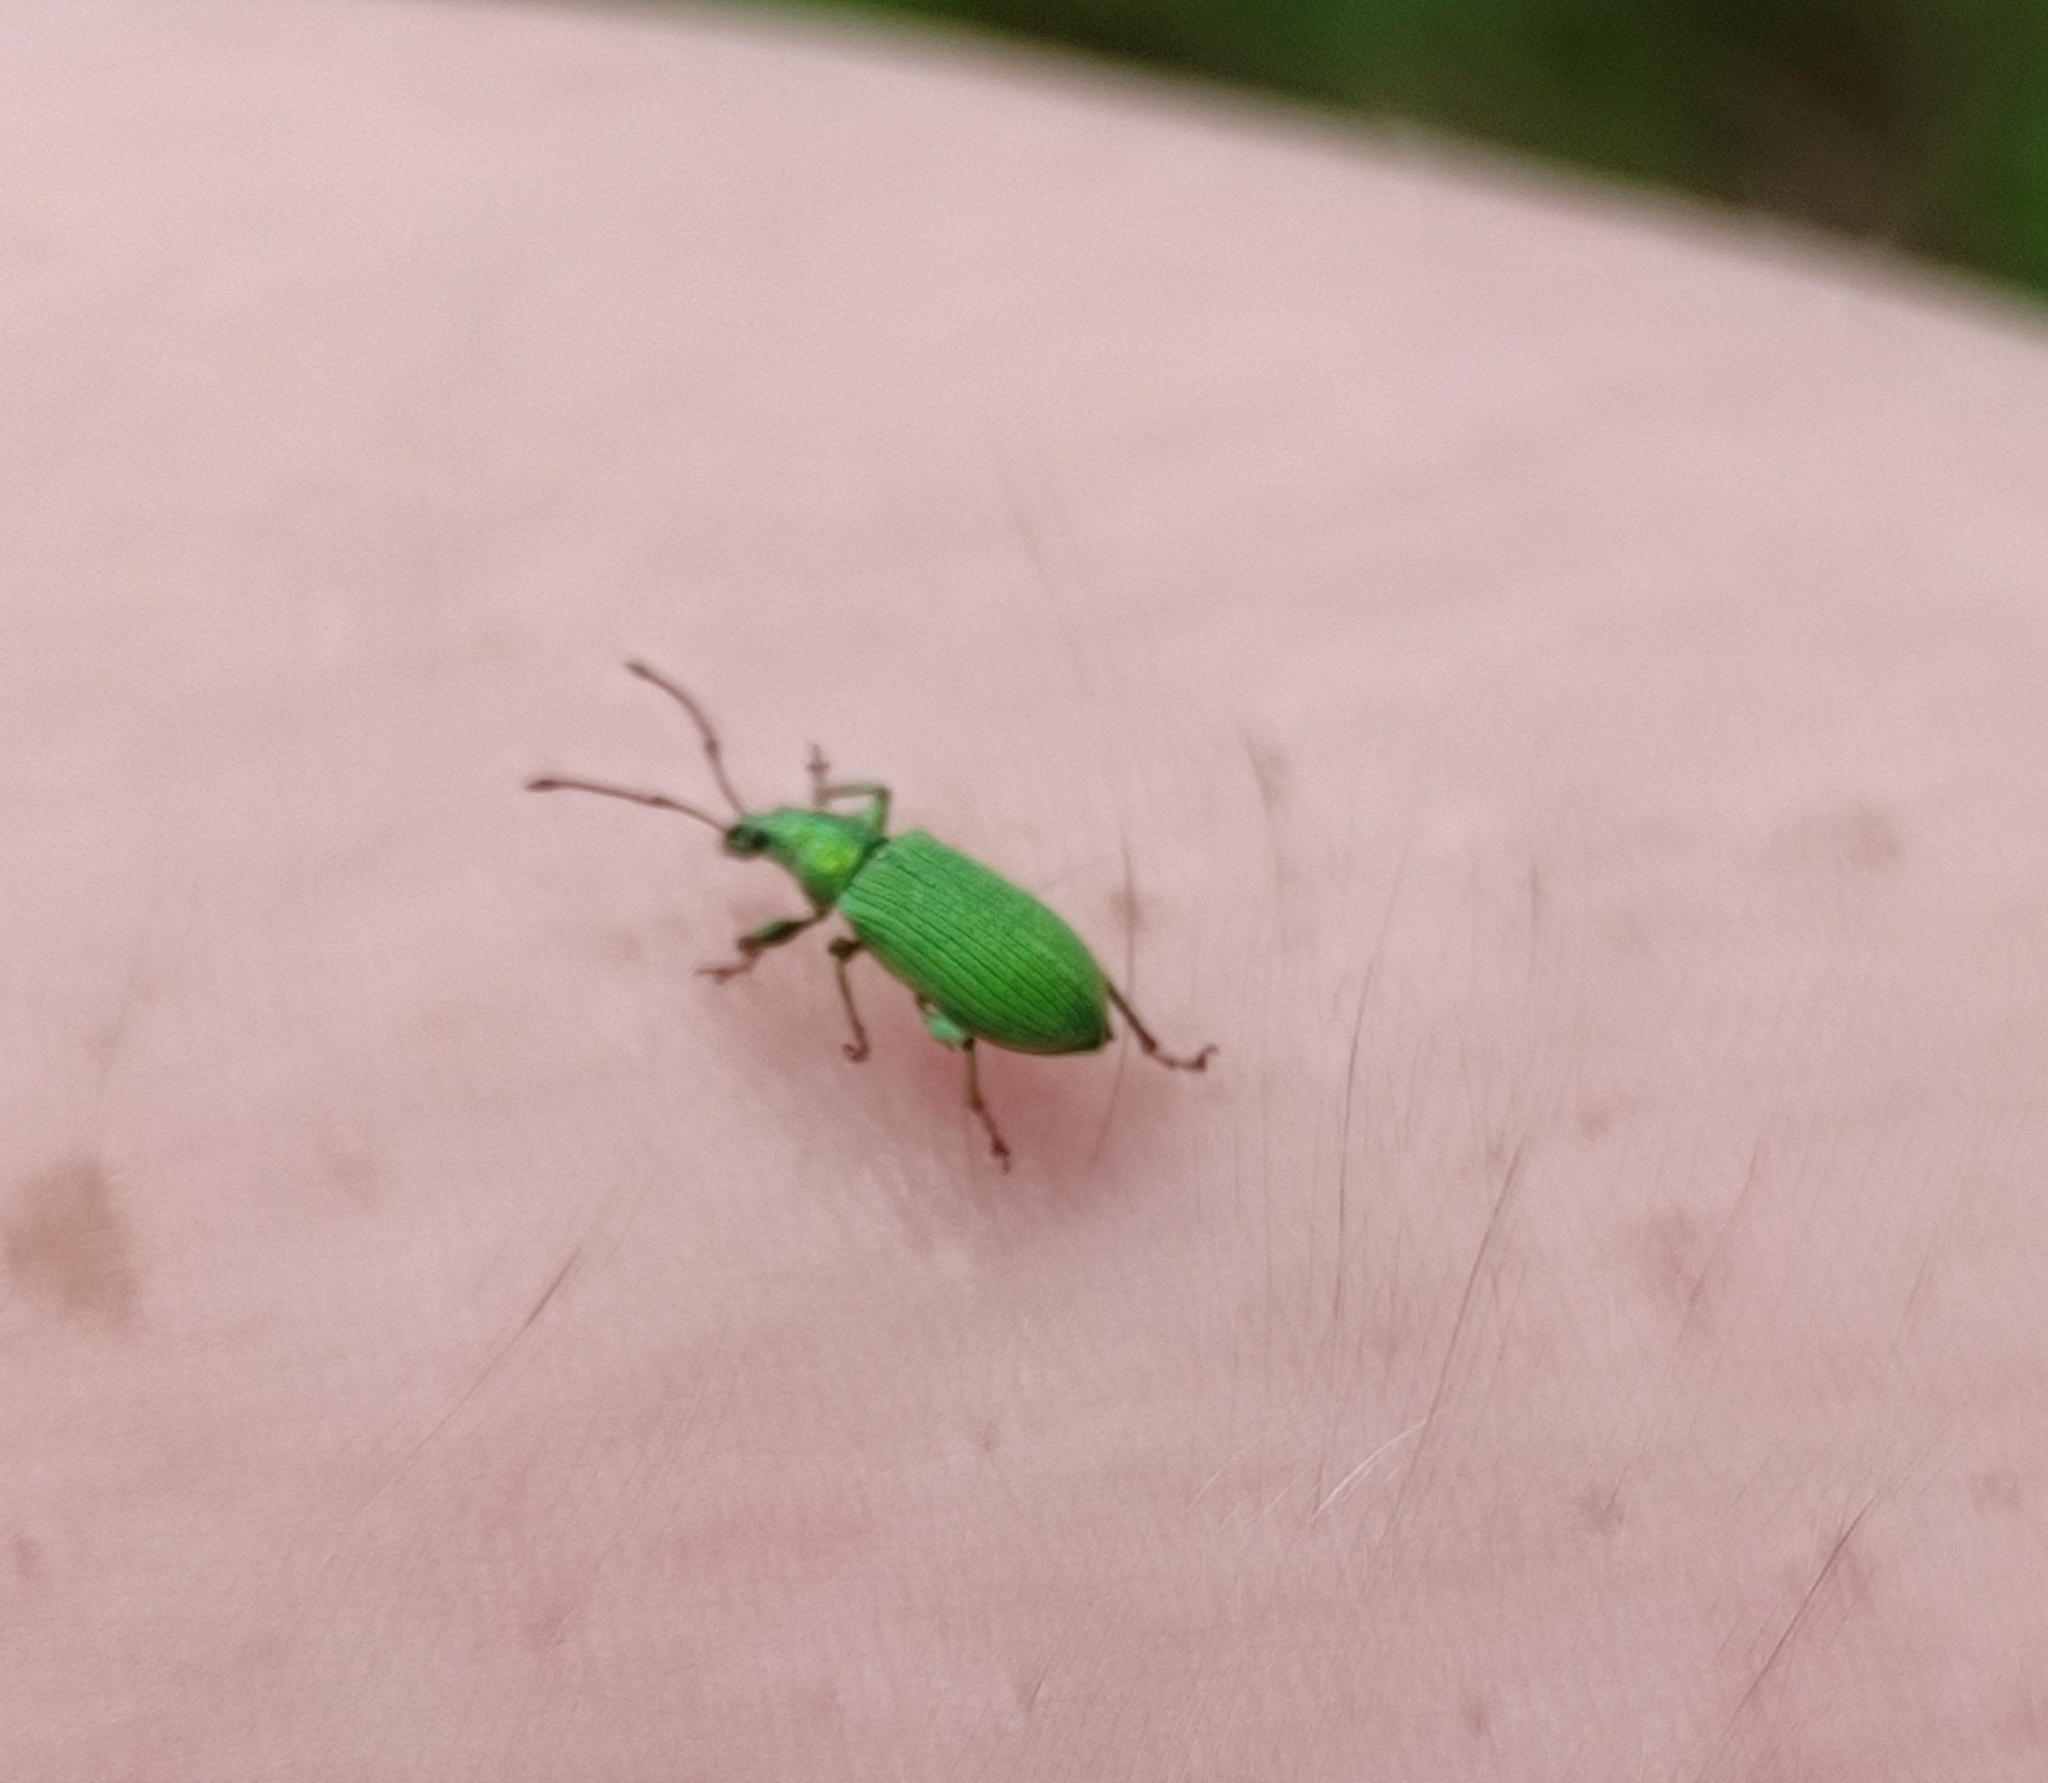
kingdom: Animalia
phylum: Arthropoda
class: Insecta
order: Coleoptera
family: Curculionidae
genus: Phyllobius
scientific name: Phyllobius maculicornis
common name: Green leaf weevil
